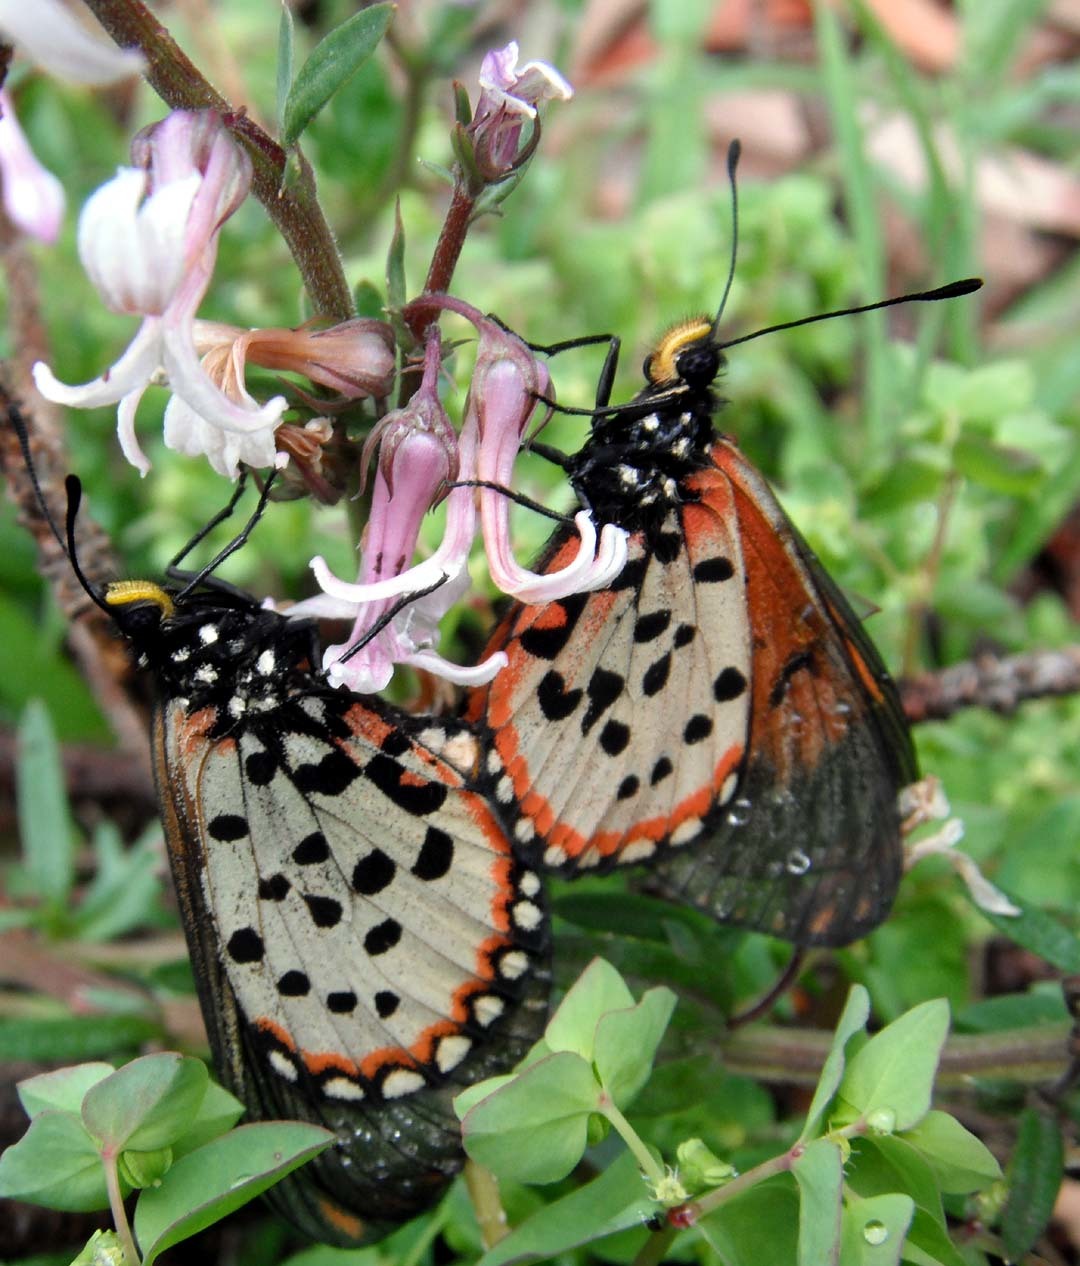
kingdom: Animalia
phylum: Arthropoda
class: Insecta
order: Lepidoptera
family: Nymphalidae
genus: Acraea
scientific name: Acraea horta
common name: Garden acraea
